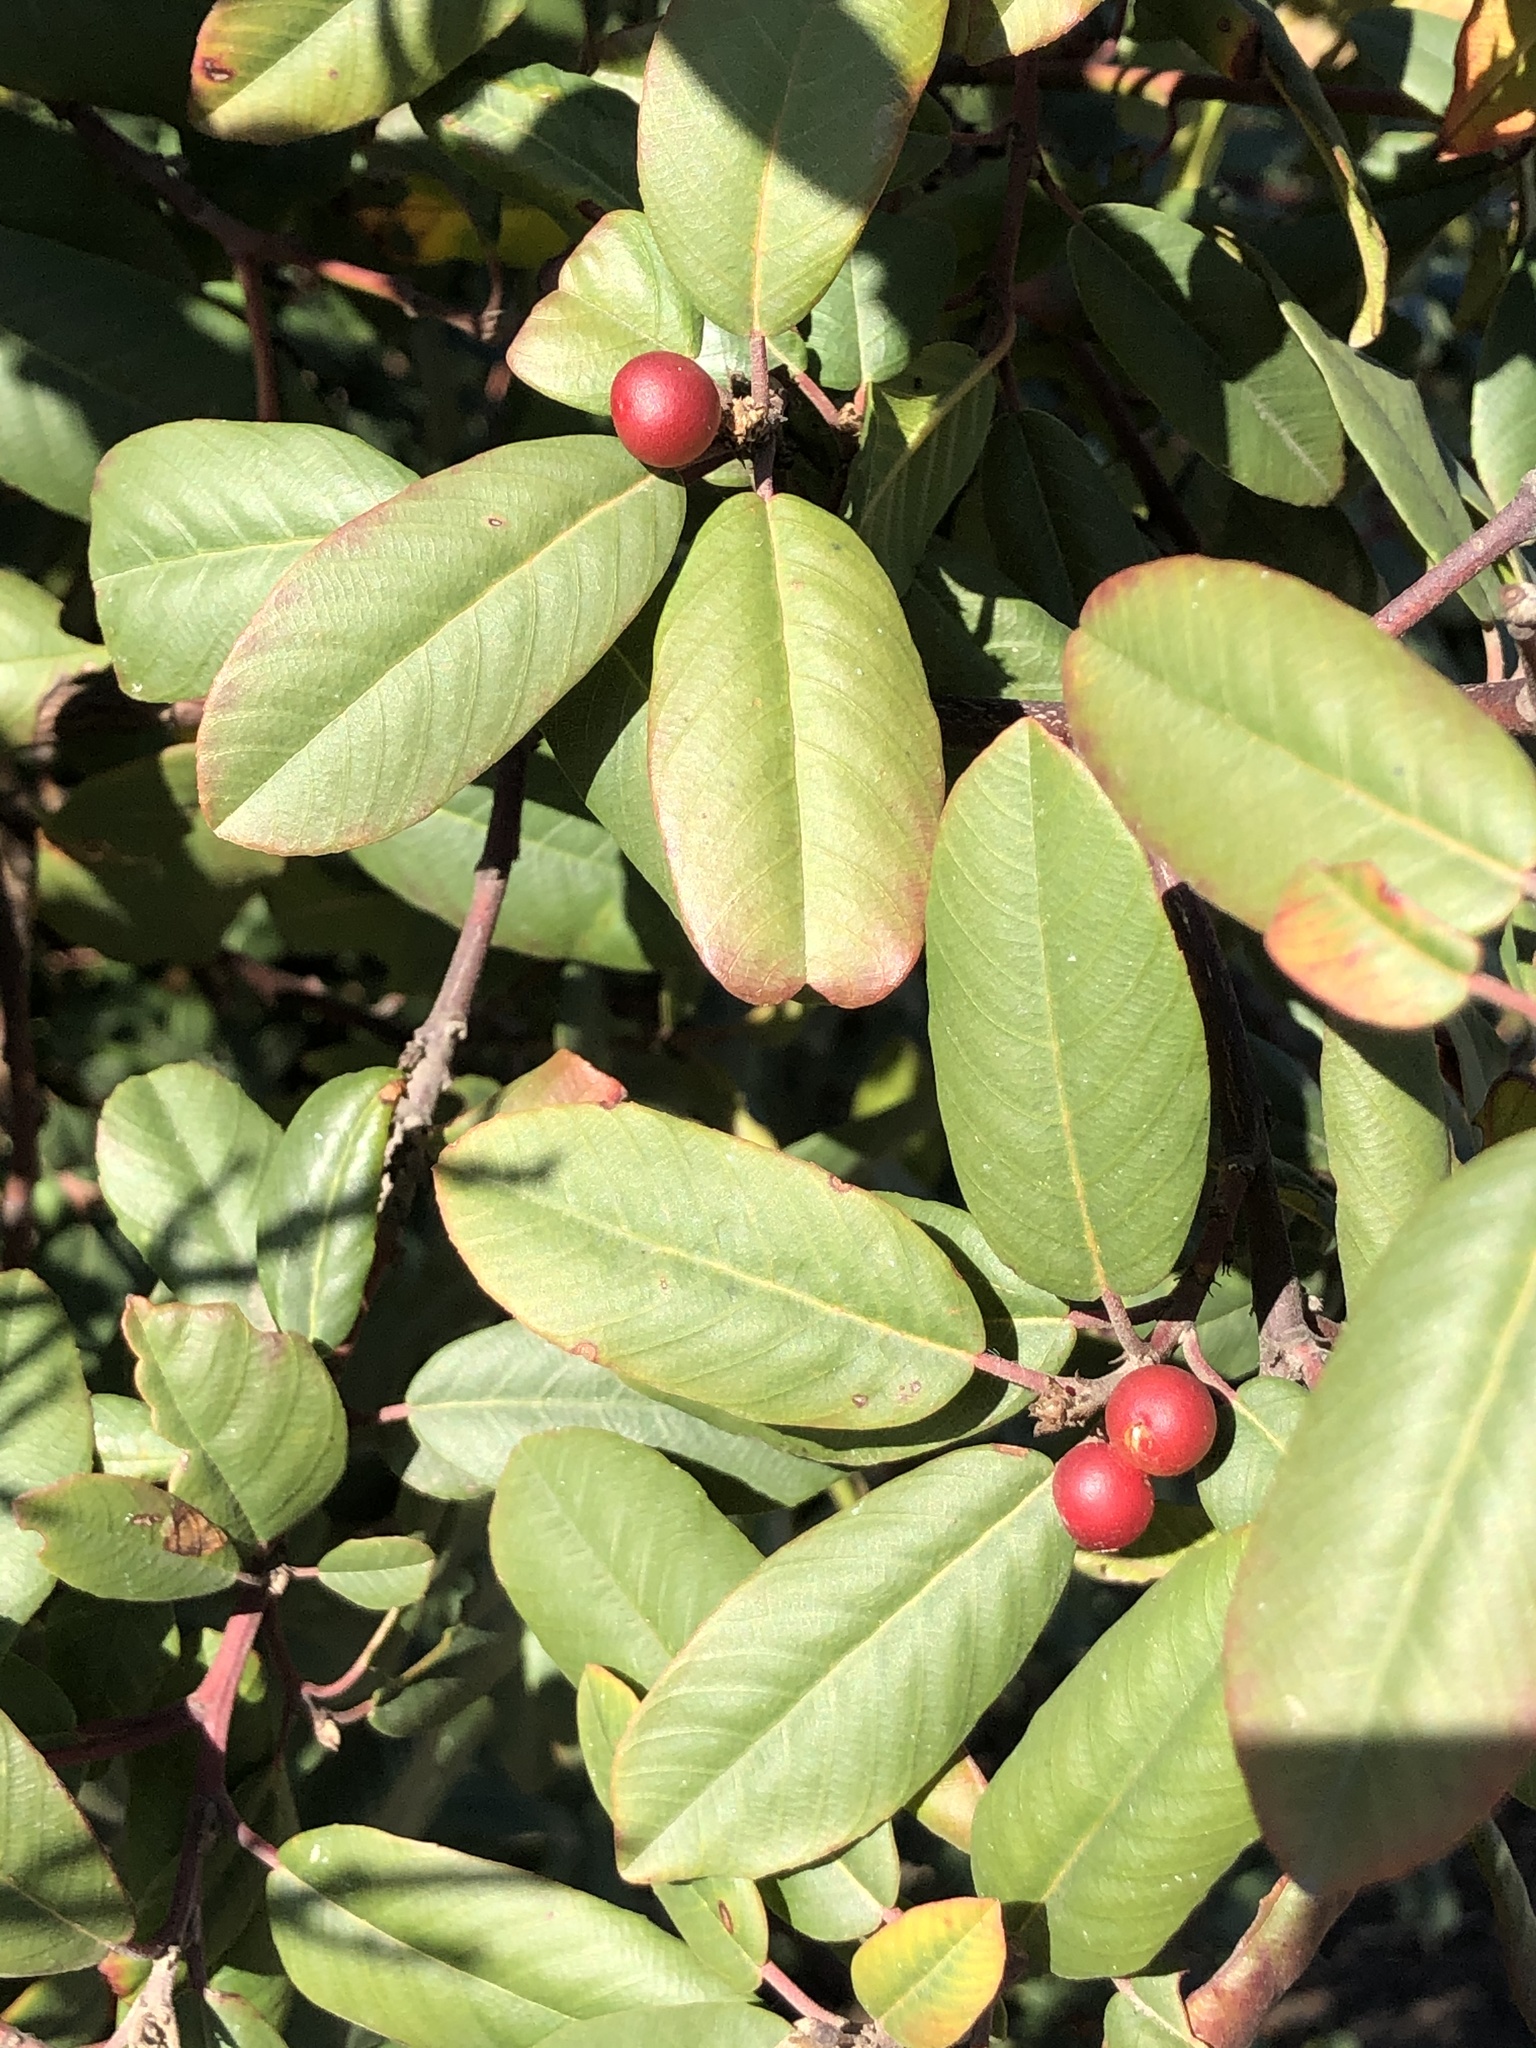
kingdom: Plantae
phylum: Tracheophyta
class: Magnoliopsida
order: Rosales
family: Rhamnaceae
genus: Frangula
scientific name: Frangula californica
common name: California buckthorn
